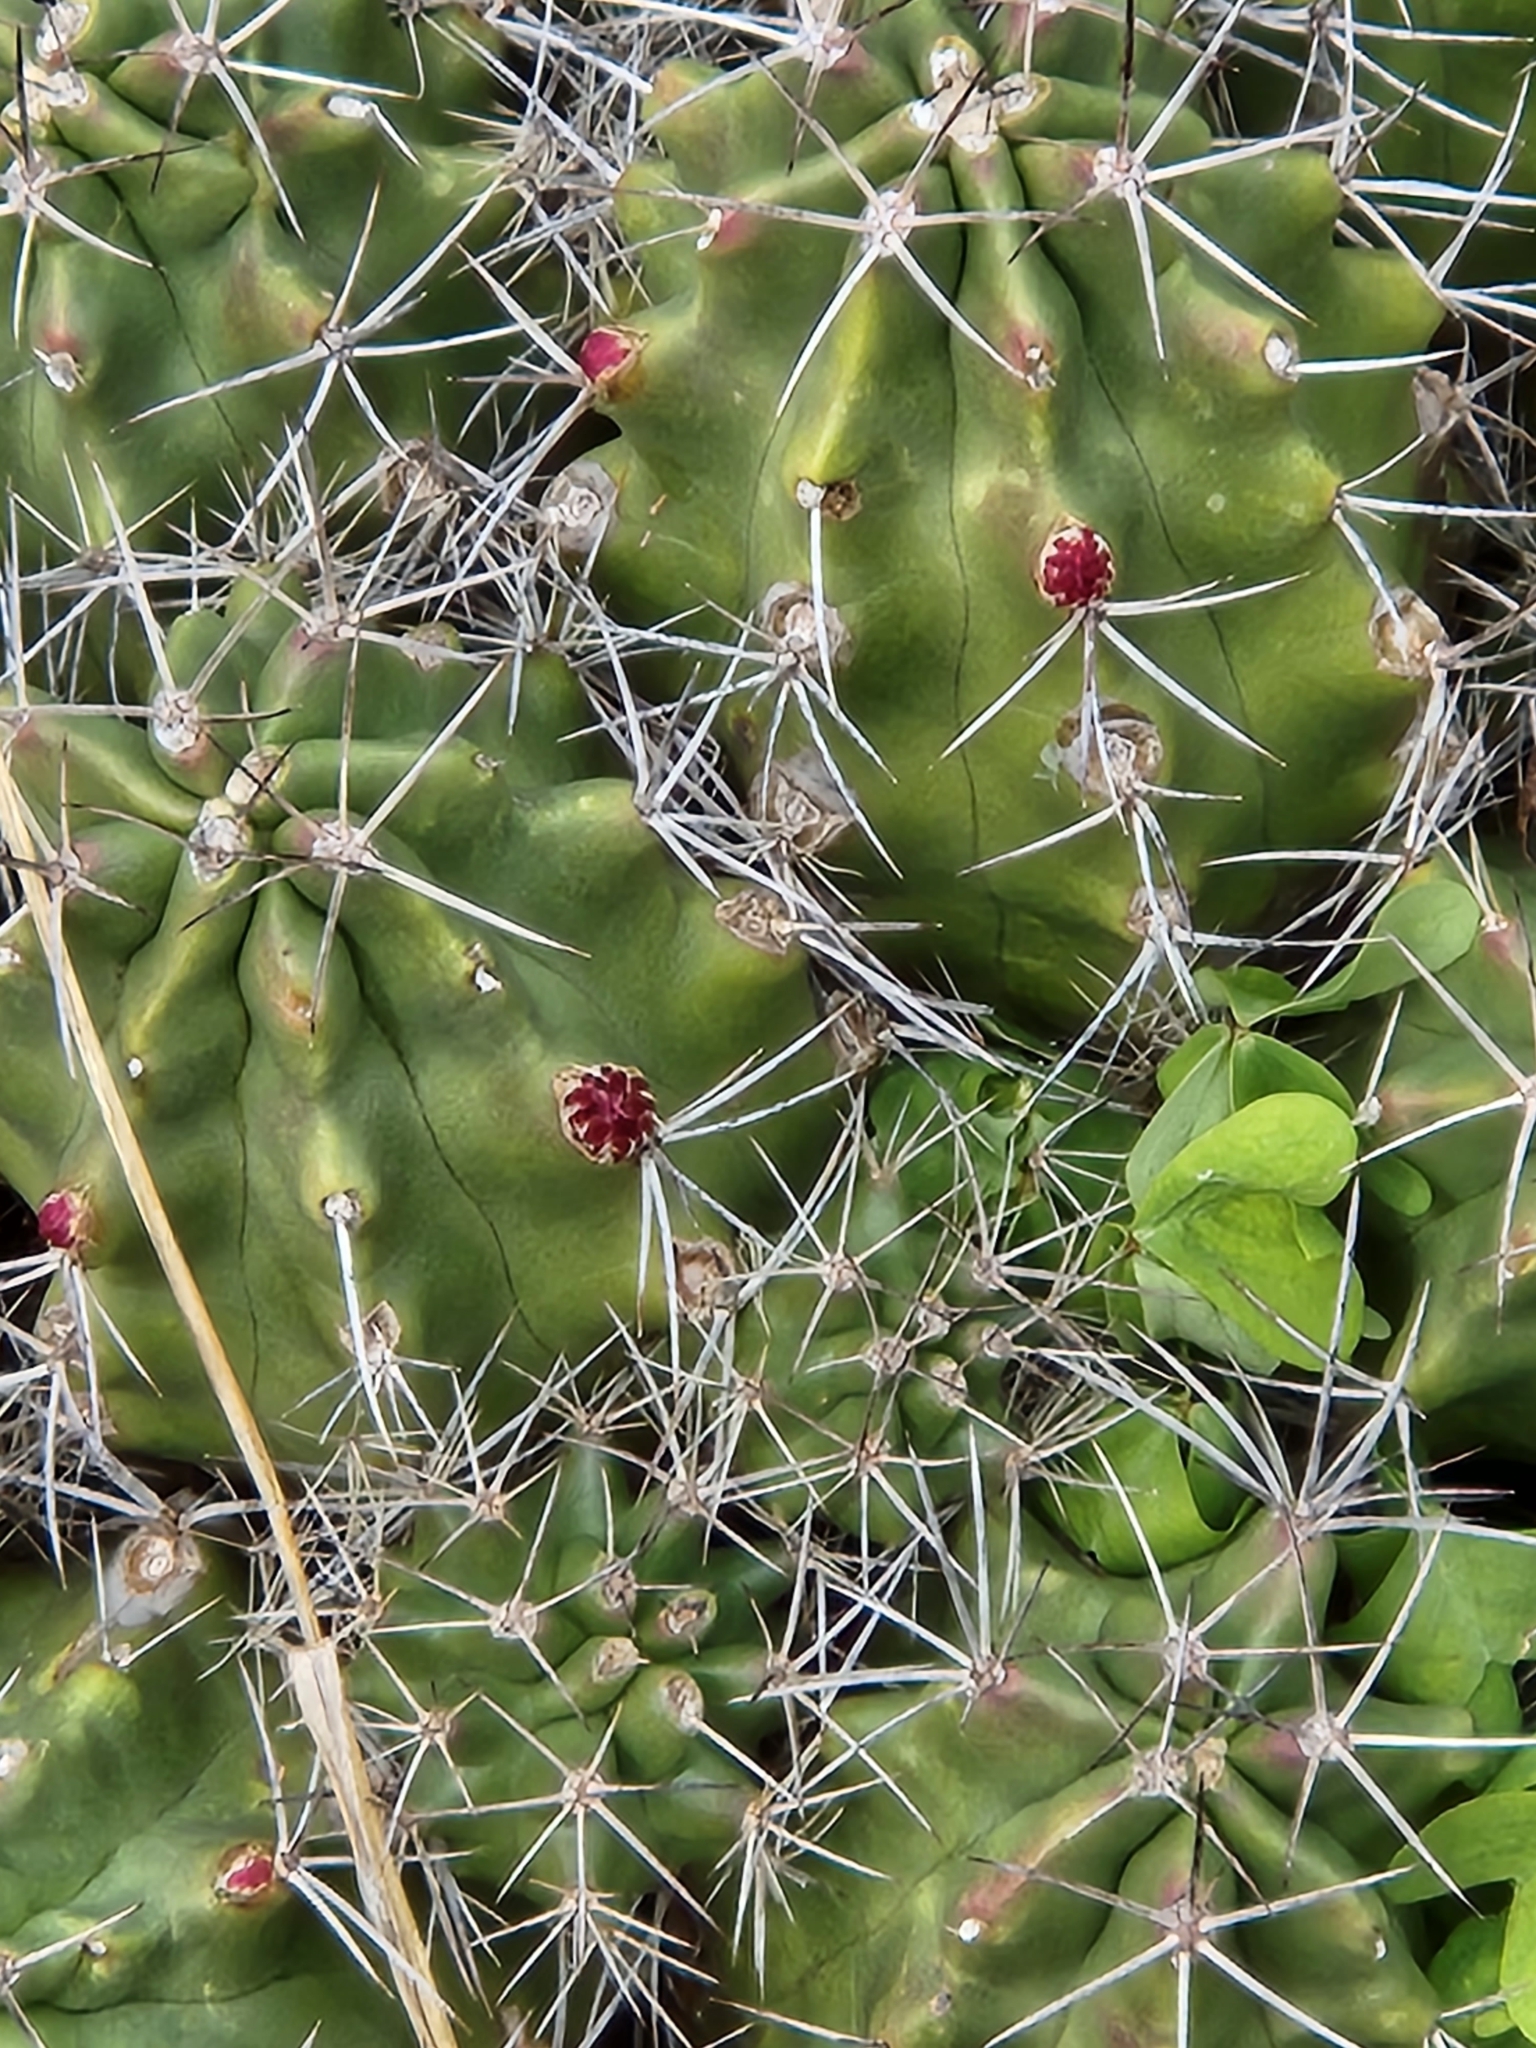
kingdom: Plantae
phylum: Tracheophyta
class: Magnoliopsida
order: Caryophyllales
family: Cactaceae
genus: Echinocereus
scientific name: Echinocereus coccineus
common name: Scarlet hedgehog cactus
